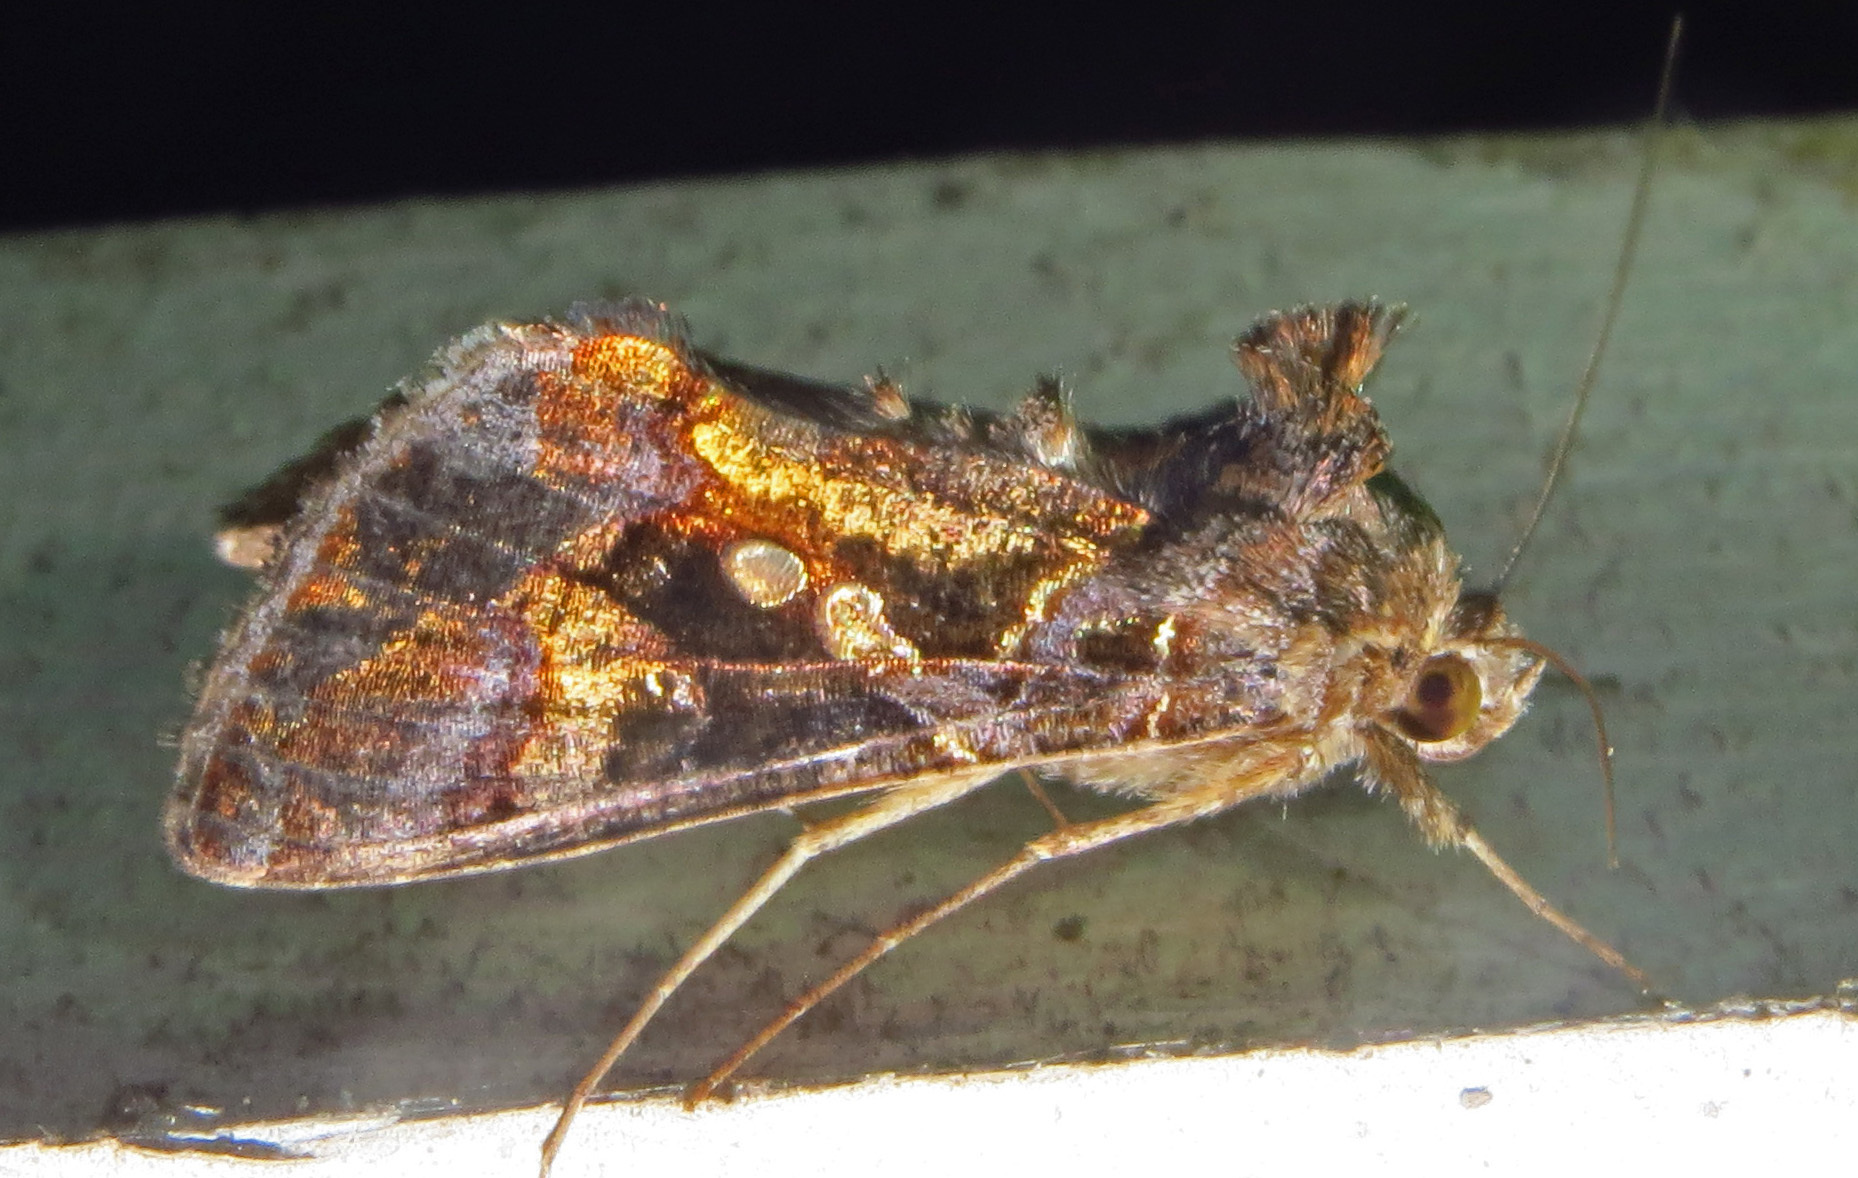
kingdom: Animalia
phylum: Arthropoda
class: Insecta
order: Lepidoptera
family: Noctuidae
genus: Chrysodeixis
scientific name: Chrysodeixis includens
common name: Cutworm moth
